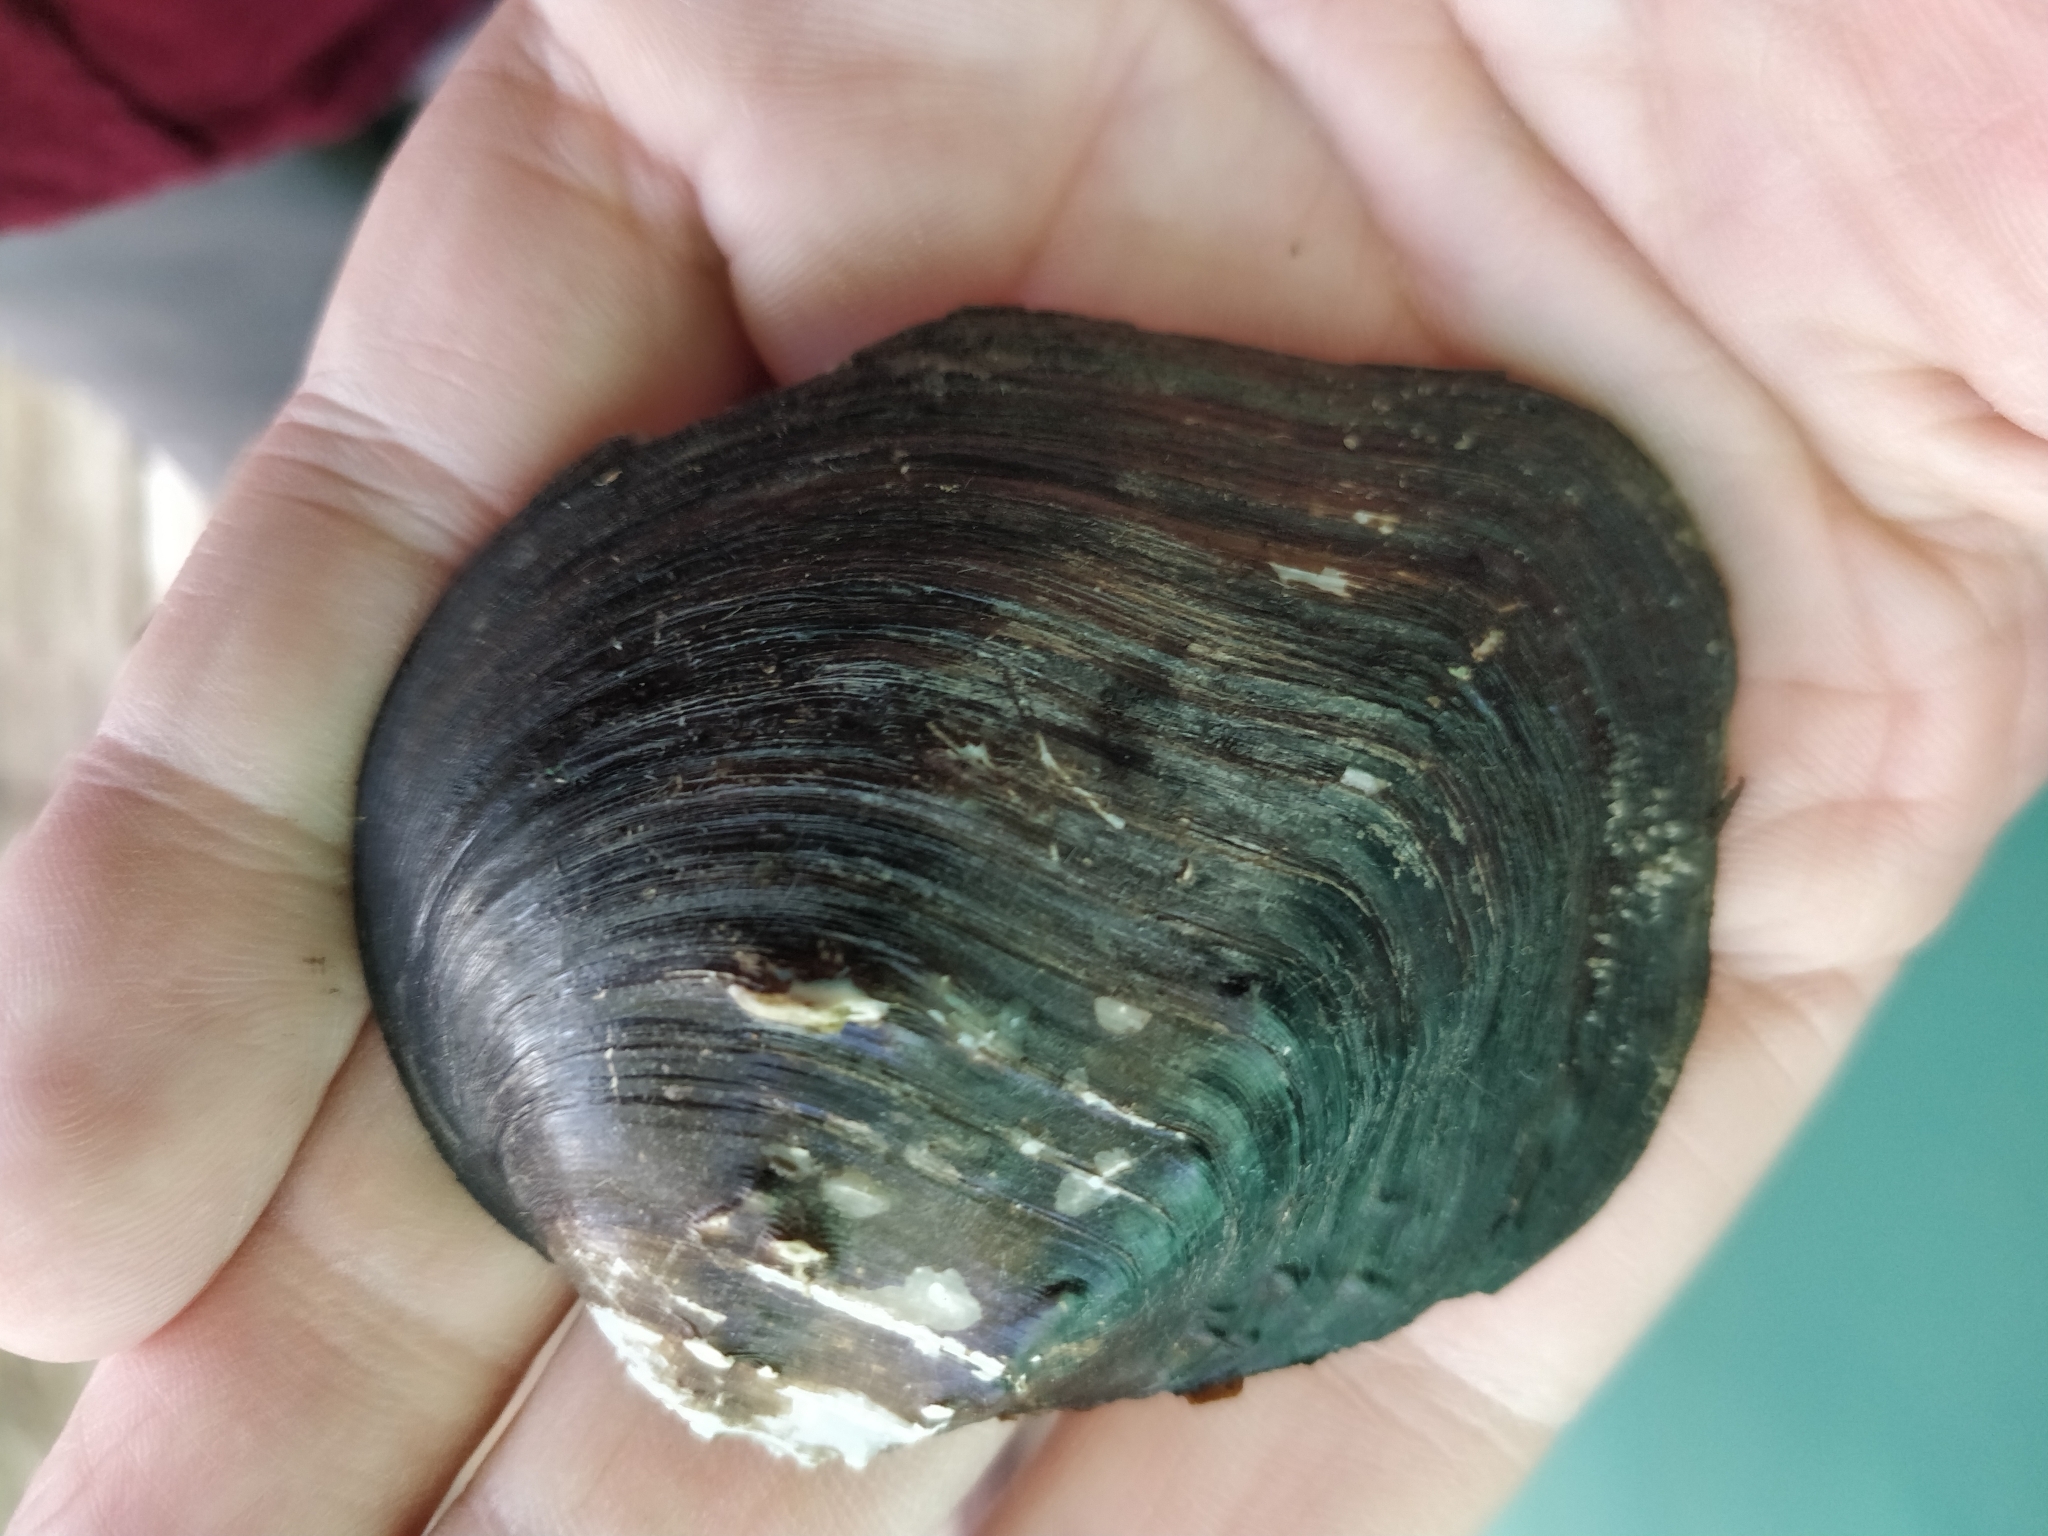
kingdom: Animalia
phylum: Mollusca
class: Bivalvia
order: Unionida
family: Unionidae
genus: Quadrula
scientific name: Quadrula quadrula
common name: Mapleleaf
